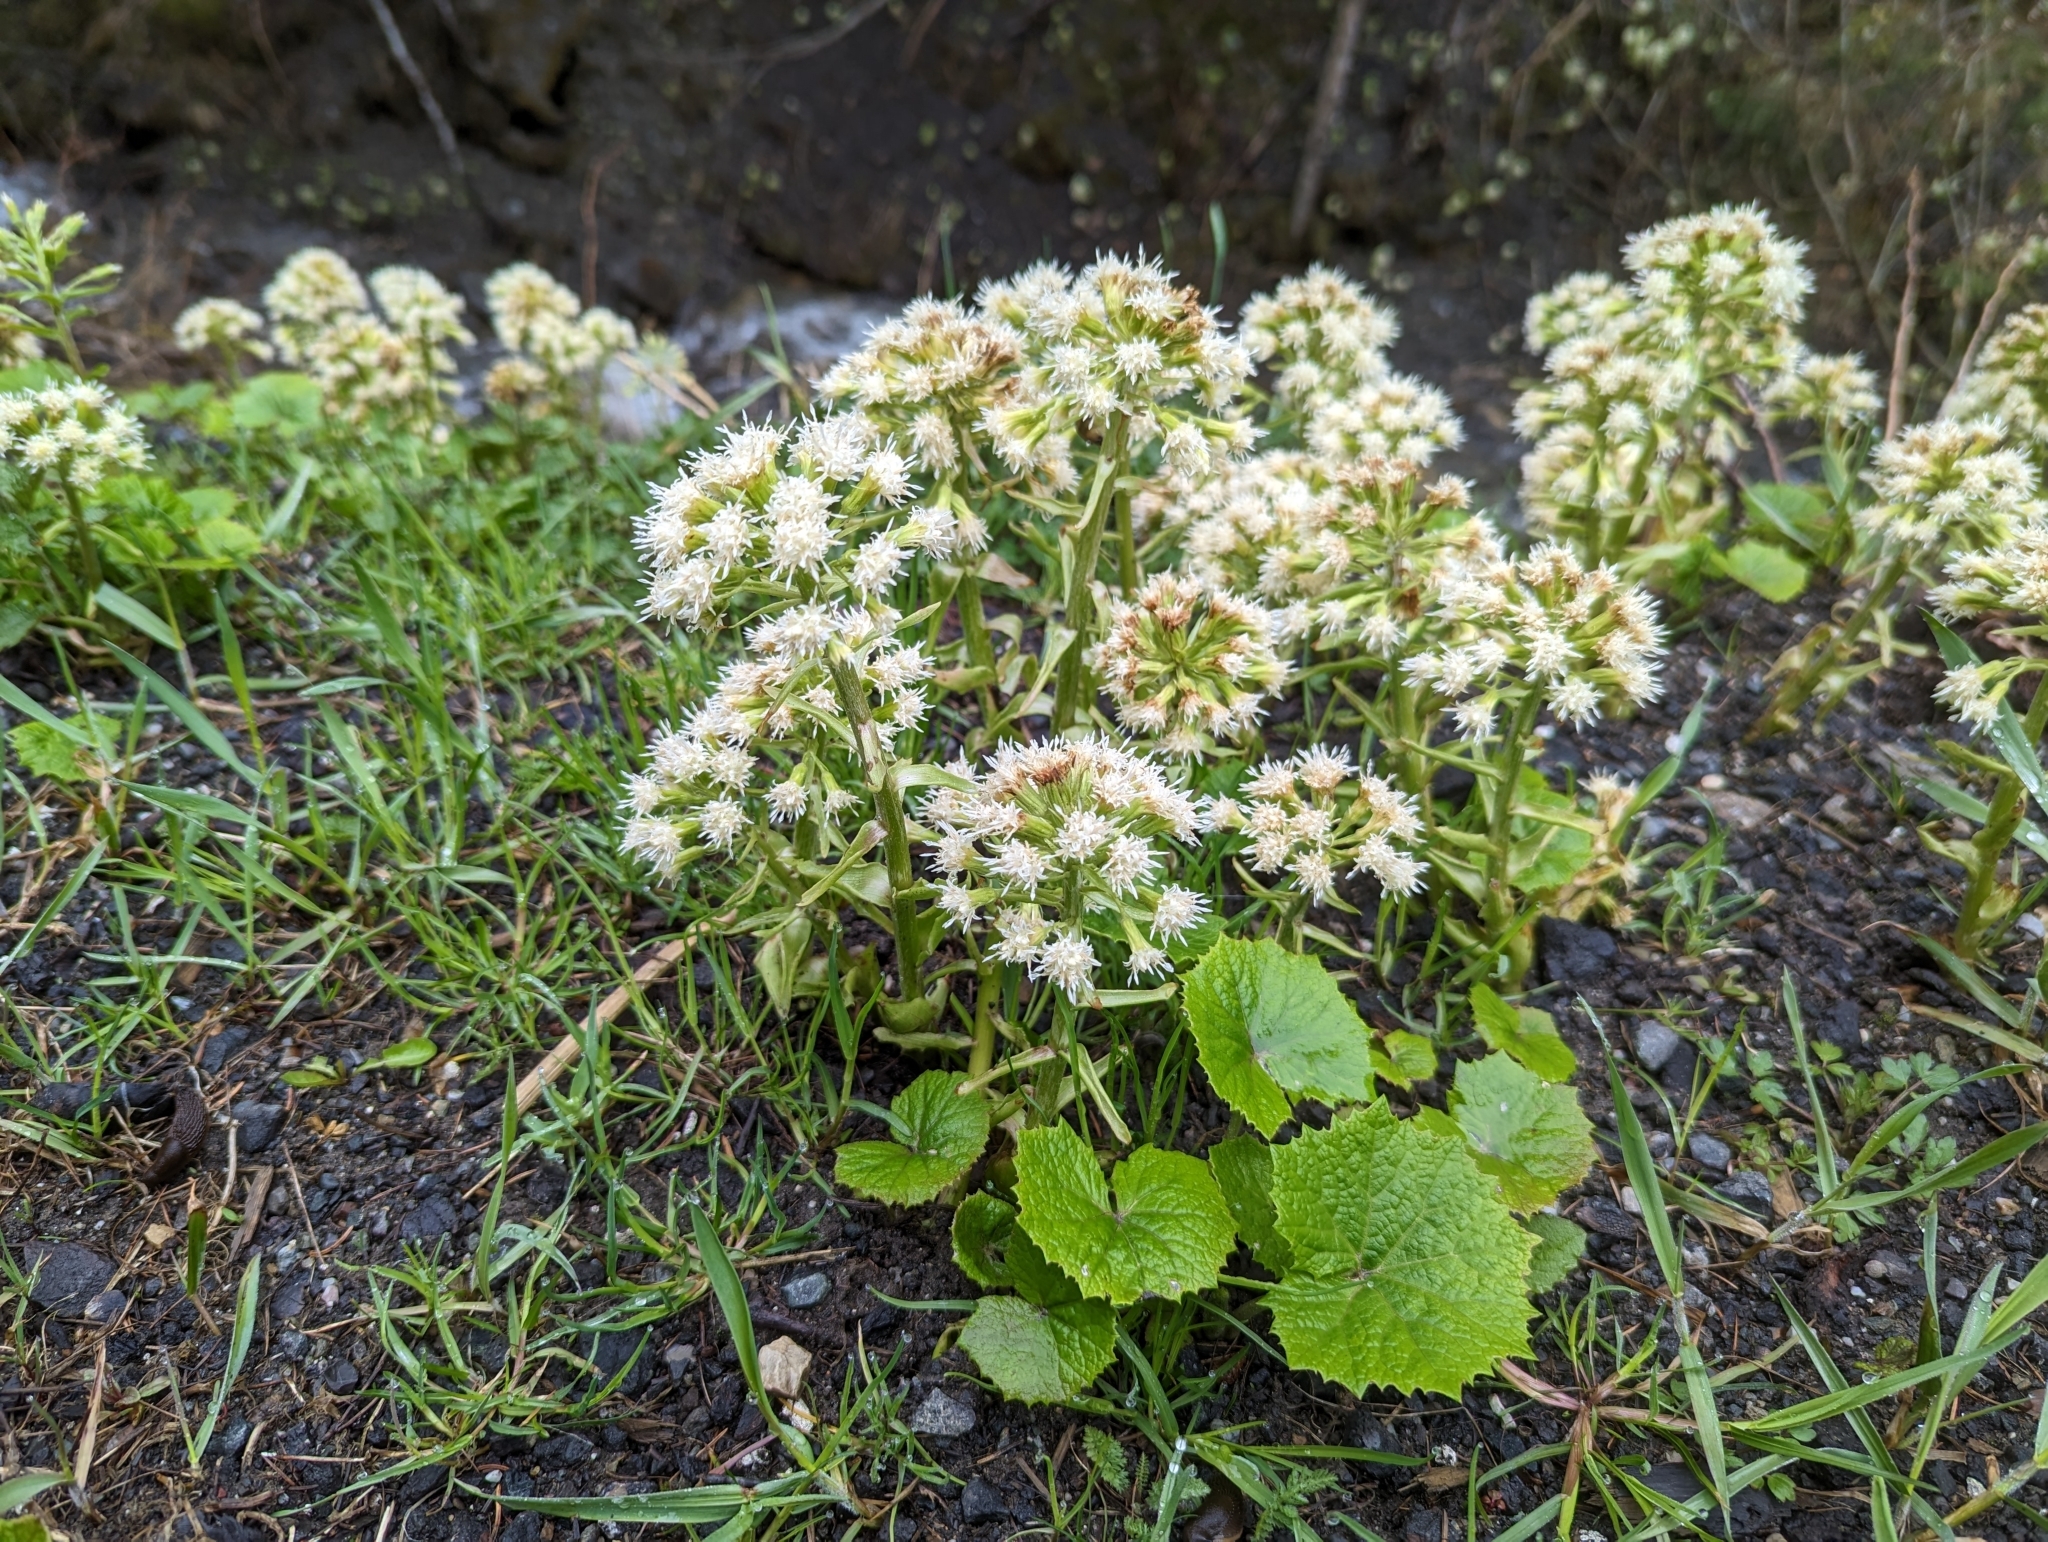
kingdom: Plantae
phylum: Tracheophyta
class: Magnoliopsida
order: Asterales
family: Asteraceae
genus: Petasites
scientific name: Petasites albus
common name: White butterbur
